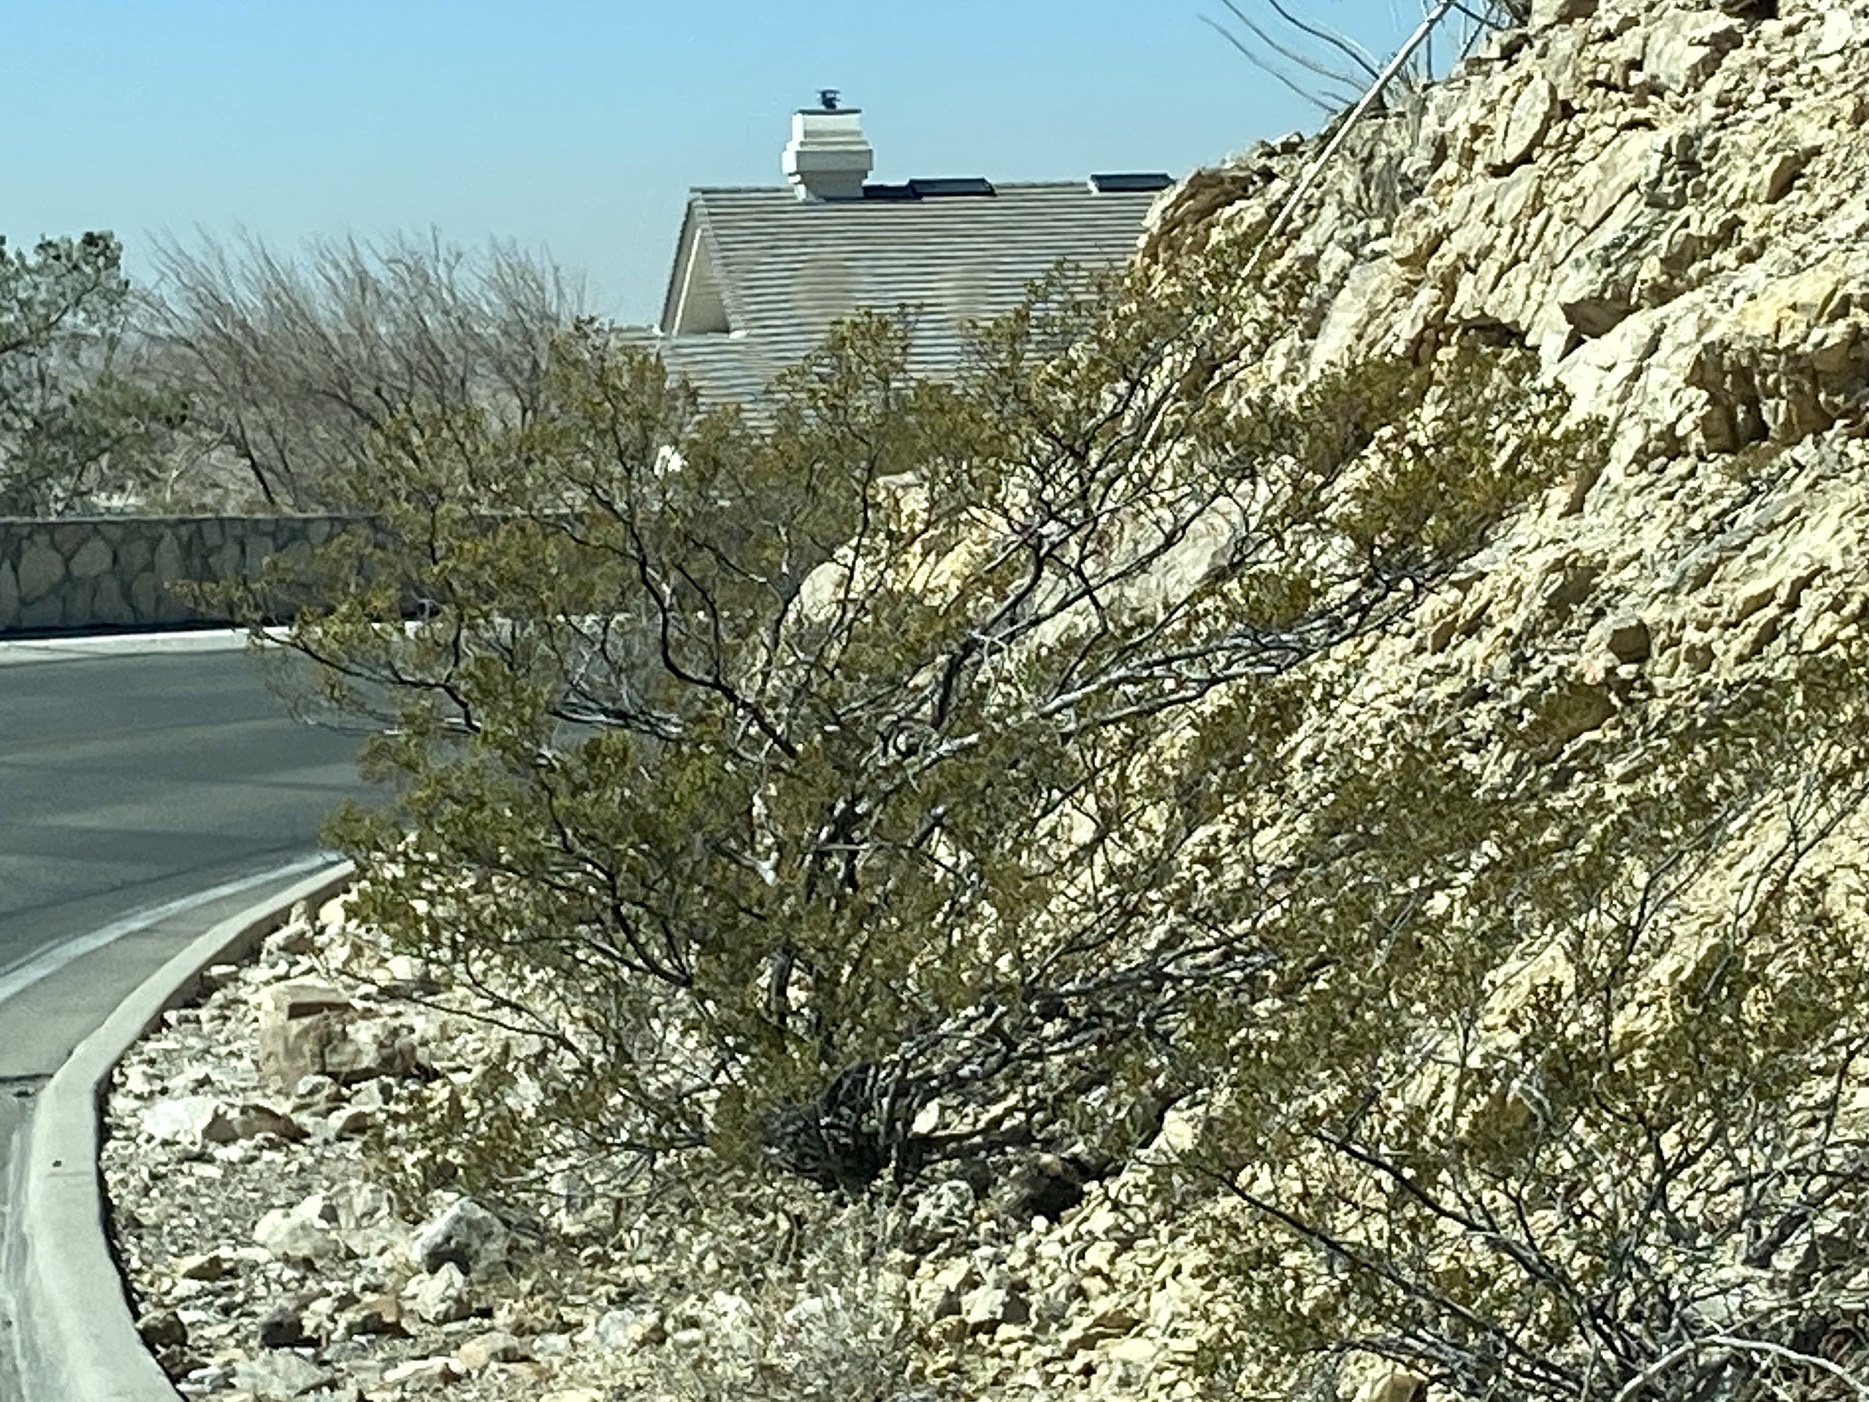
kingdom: Plantae
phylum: Tracheophyta
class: Magnoliopsida
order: Zygophyllales
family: Zygophyllaceae
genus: Larrea
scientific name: Larrea tridentata
